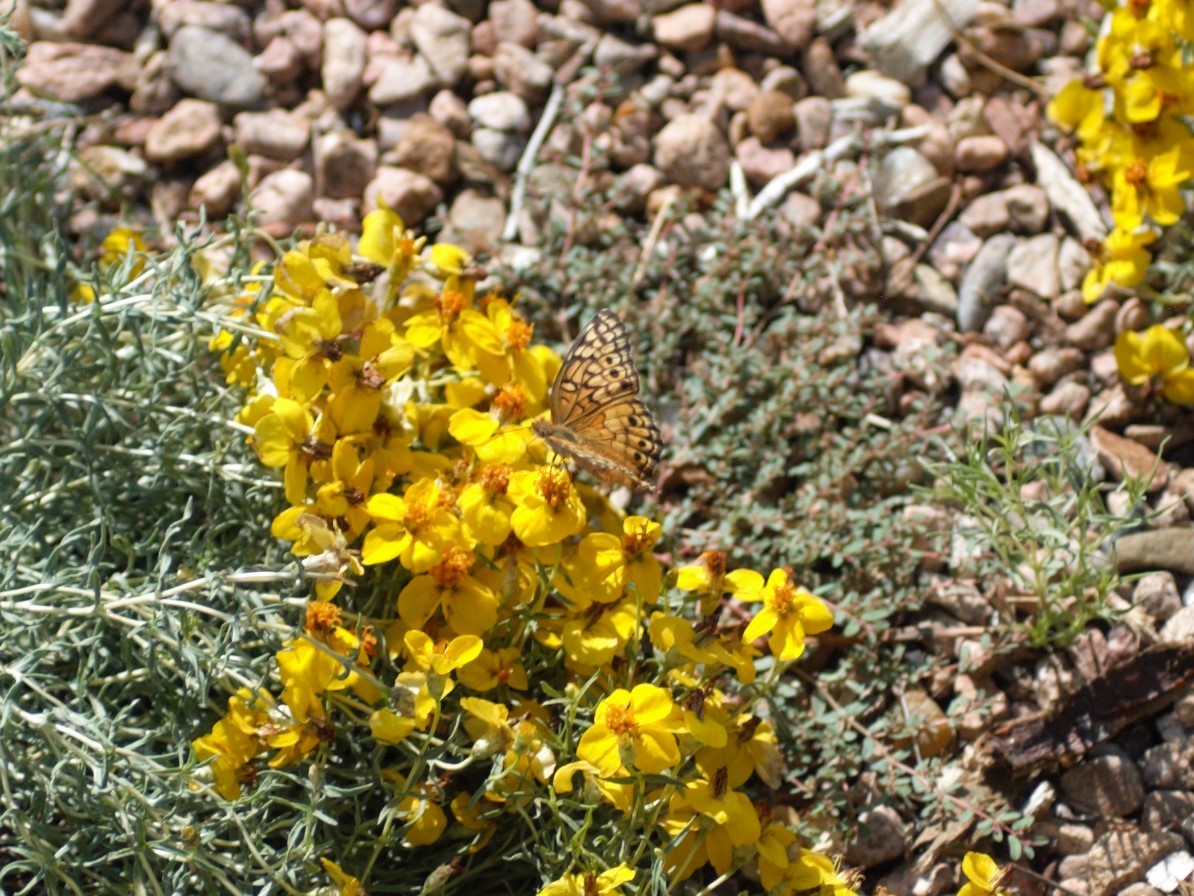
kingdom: Animalia
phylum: Arthropoda
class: Insecta
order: Lepidoptera
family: Nymphalidae
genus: Euptoieta
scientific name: Euptoieta claudia
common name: Variegated fritillary
